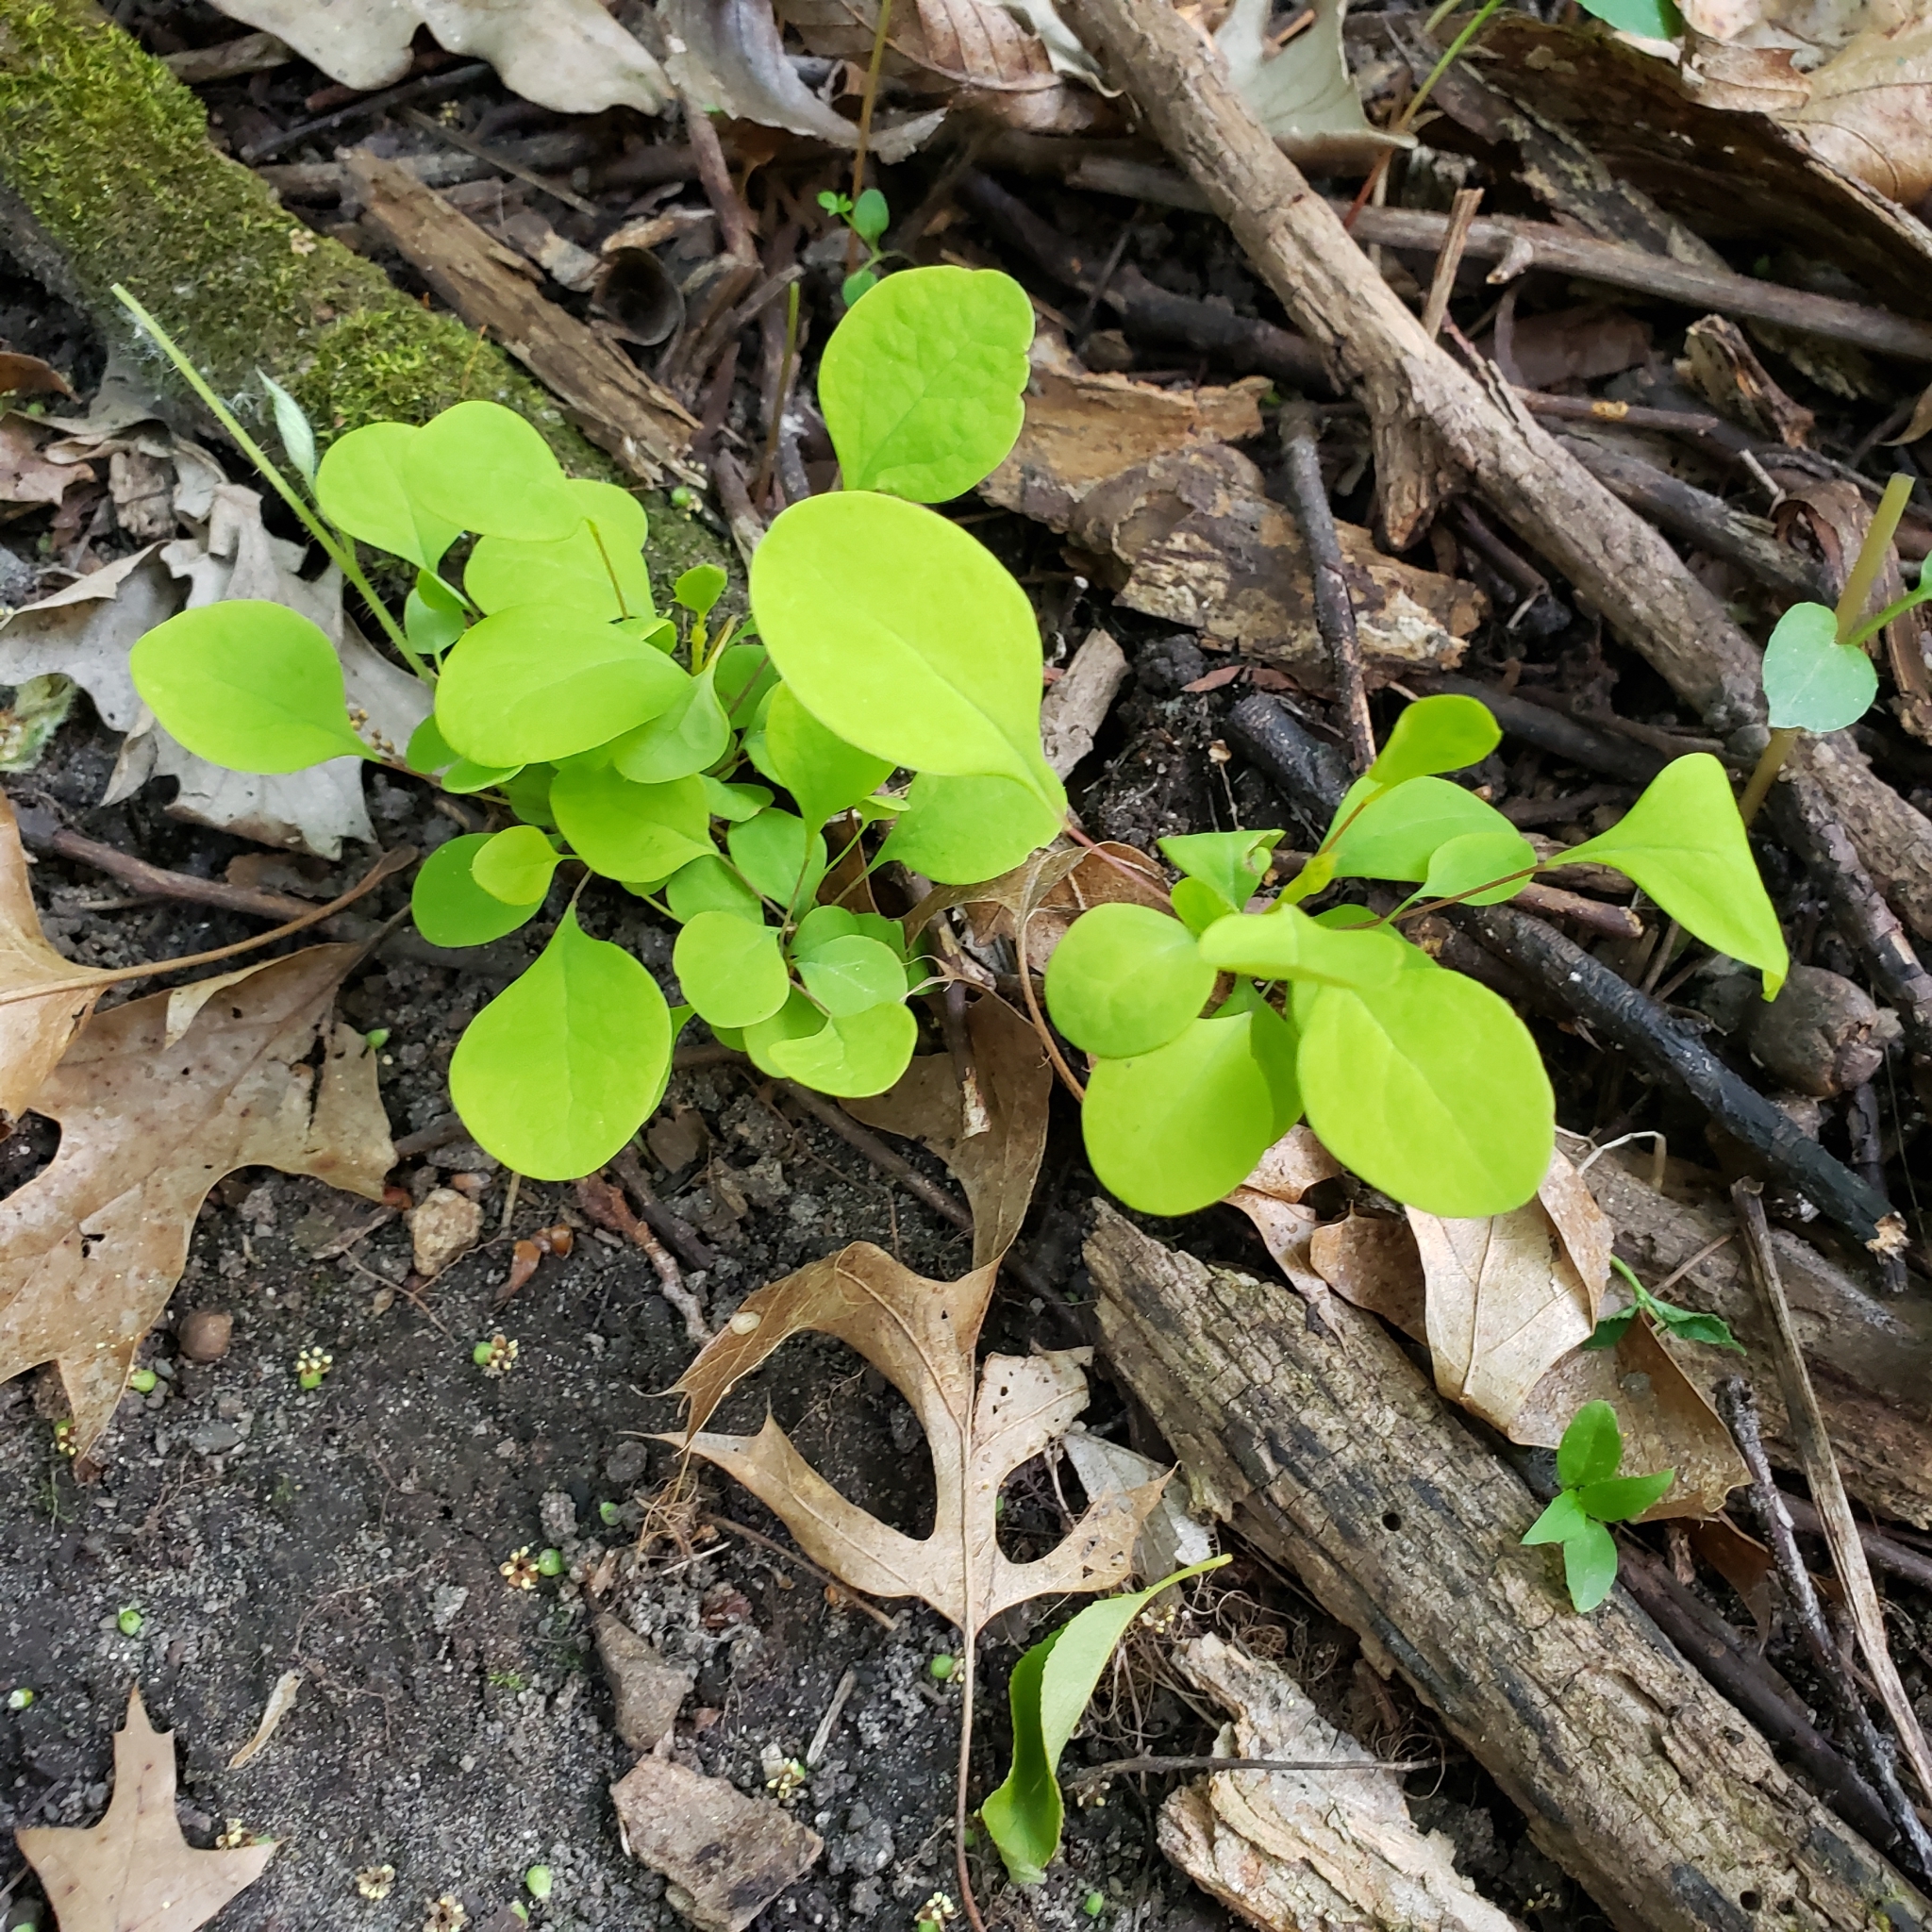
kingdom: Plantae
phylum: Tracheophyta
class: Magnoliopsida
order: Ranunculales
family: Berberidaceae
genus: Berberis
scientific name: Berberis thunbergii
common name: Japanese barberry
